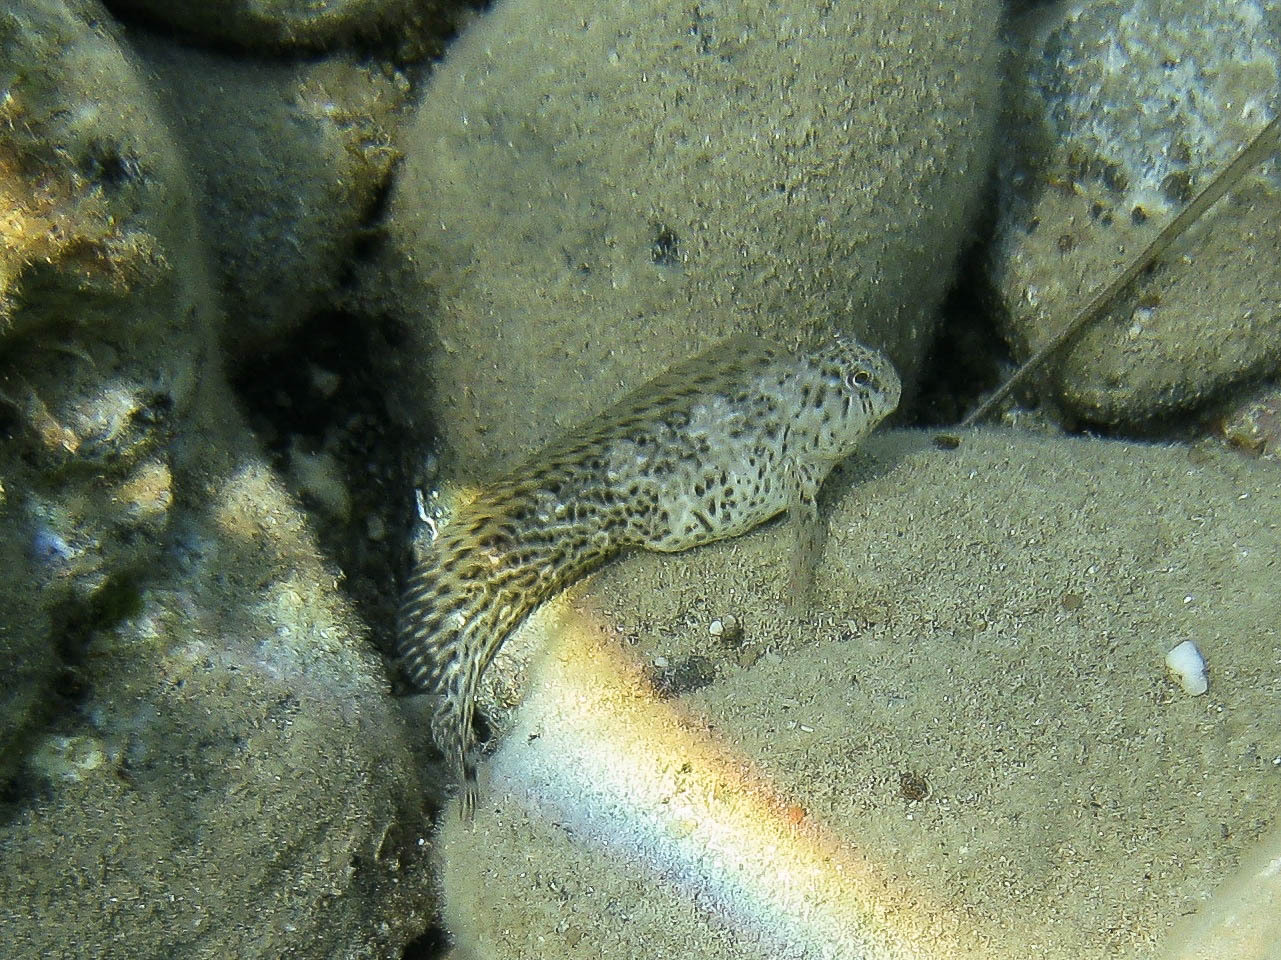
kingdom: Animalia
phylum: Chordata
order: Perciformes
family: Blenniidae
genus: Parablennius
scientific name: Parablennius sanguinolentus
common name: Black sea blenny
